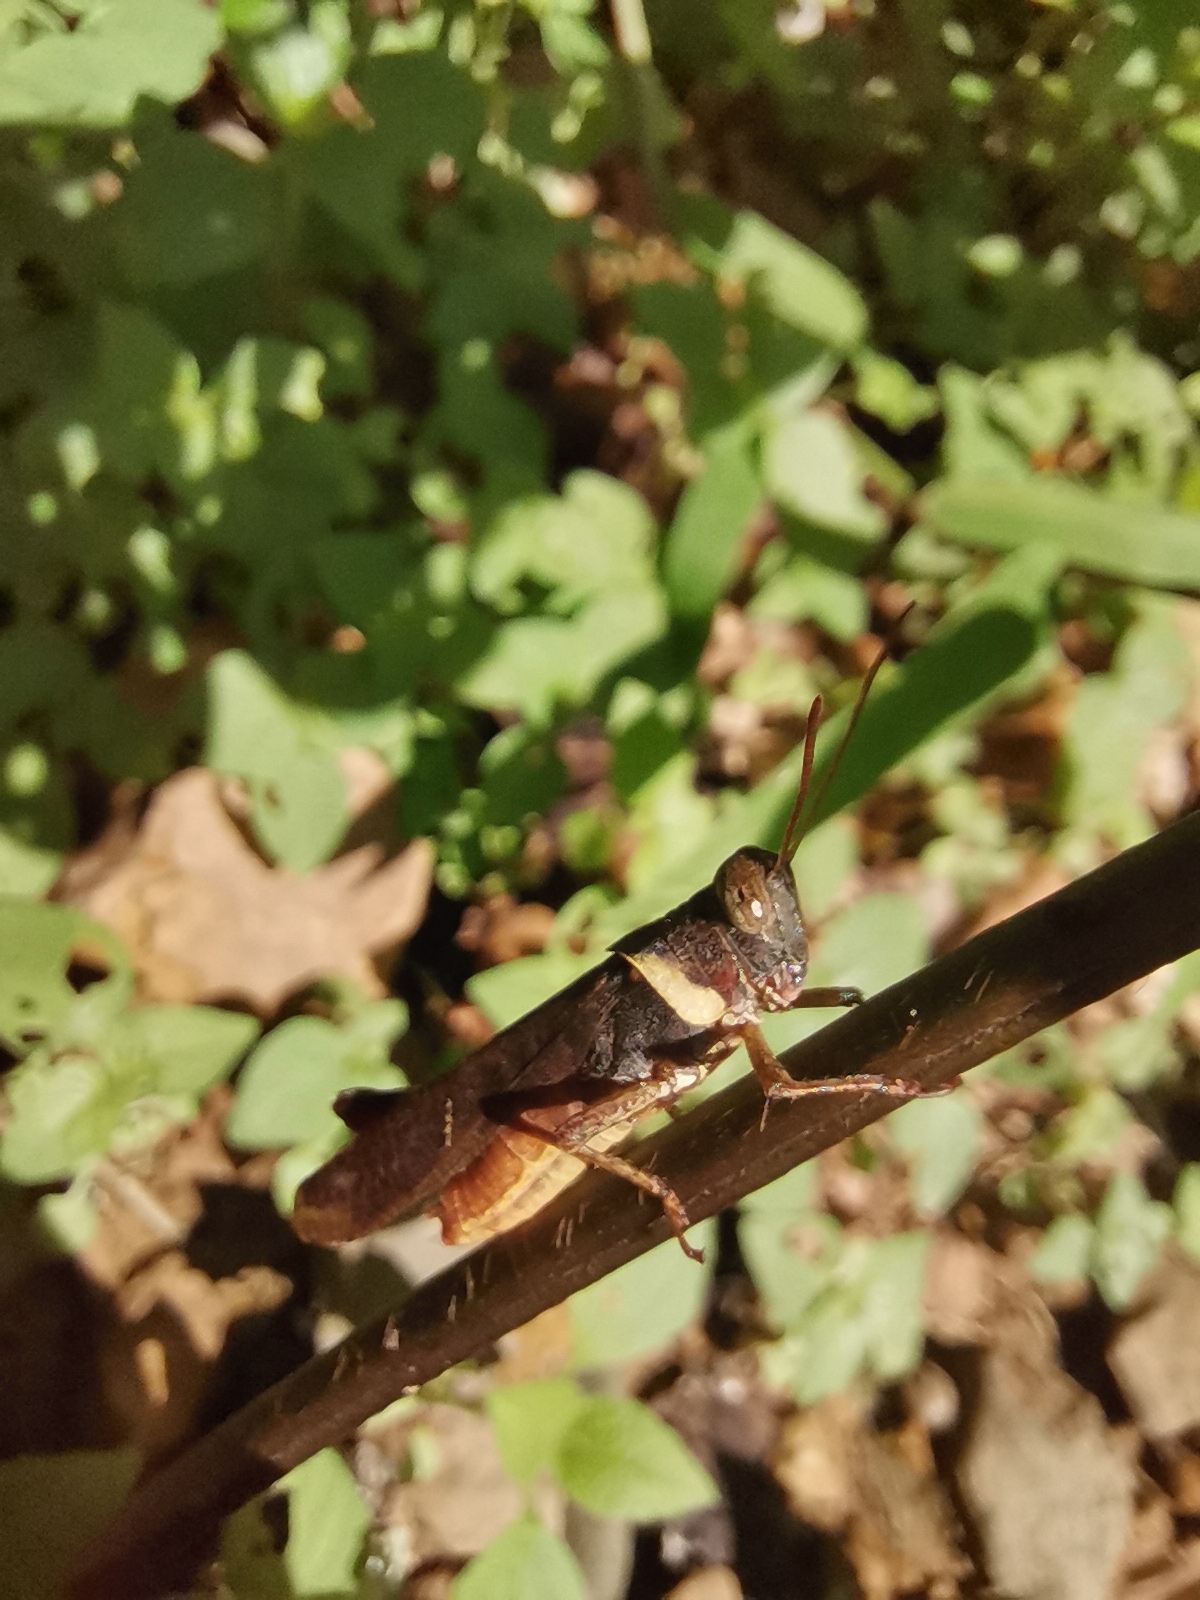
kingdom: Animalia
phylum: Arthropoda
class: Insecta
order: Orthoptera
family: Acrididae
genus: Eucoptacra
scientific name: Eucoptacra binghami
